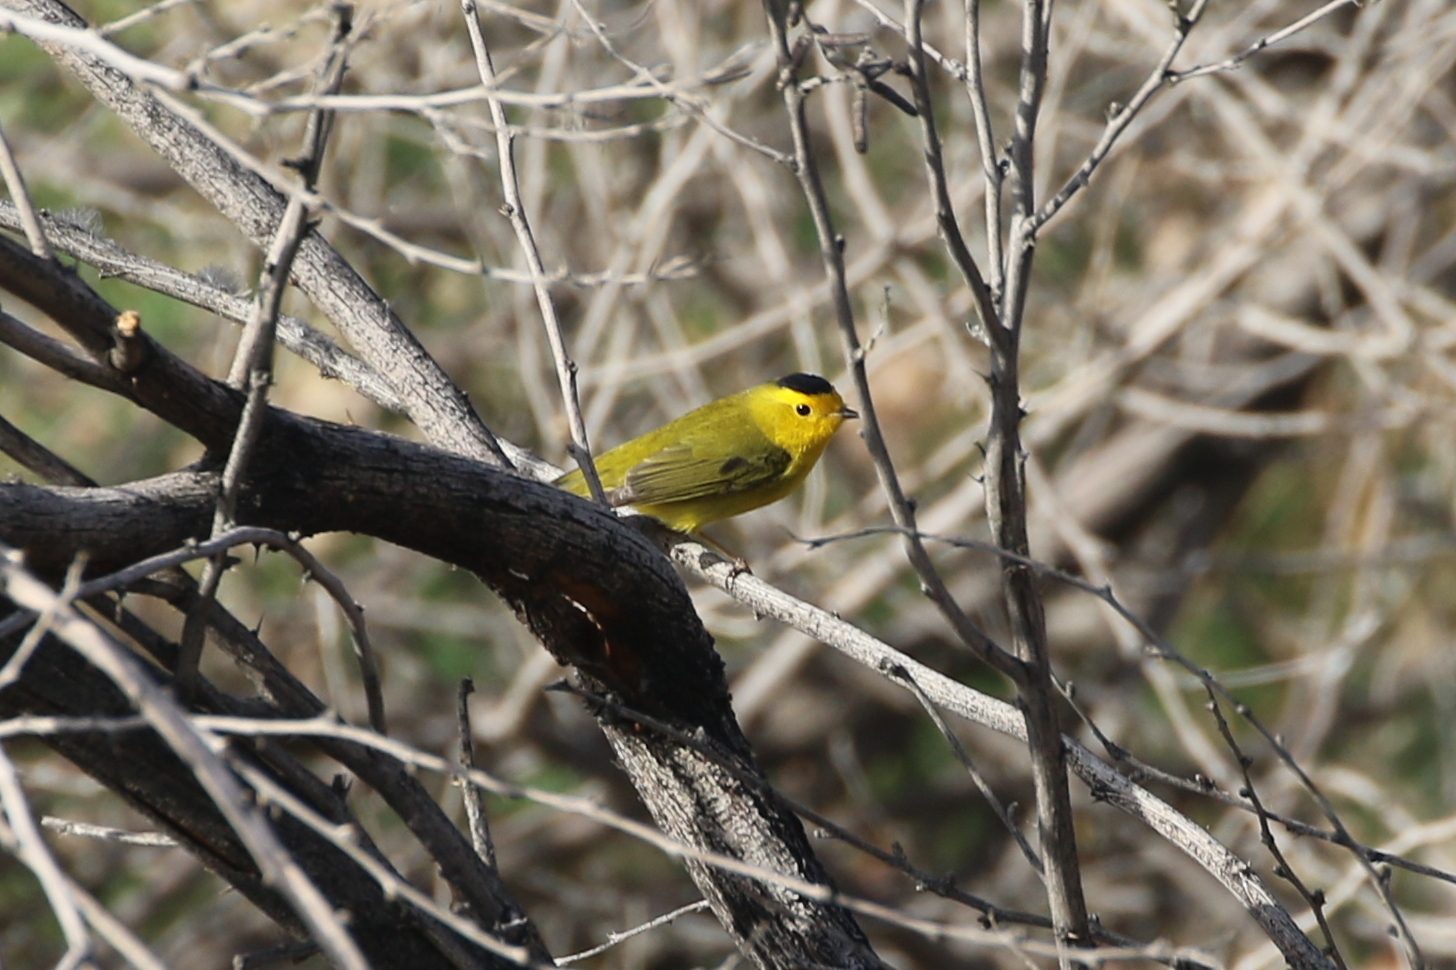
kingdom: Animalia
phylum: Chordata
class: Aves
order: Passeriformes
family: Parulidae
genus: Cardellina
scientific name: Cardellina pusilla
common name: Wilson's warbler
